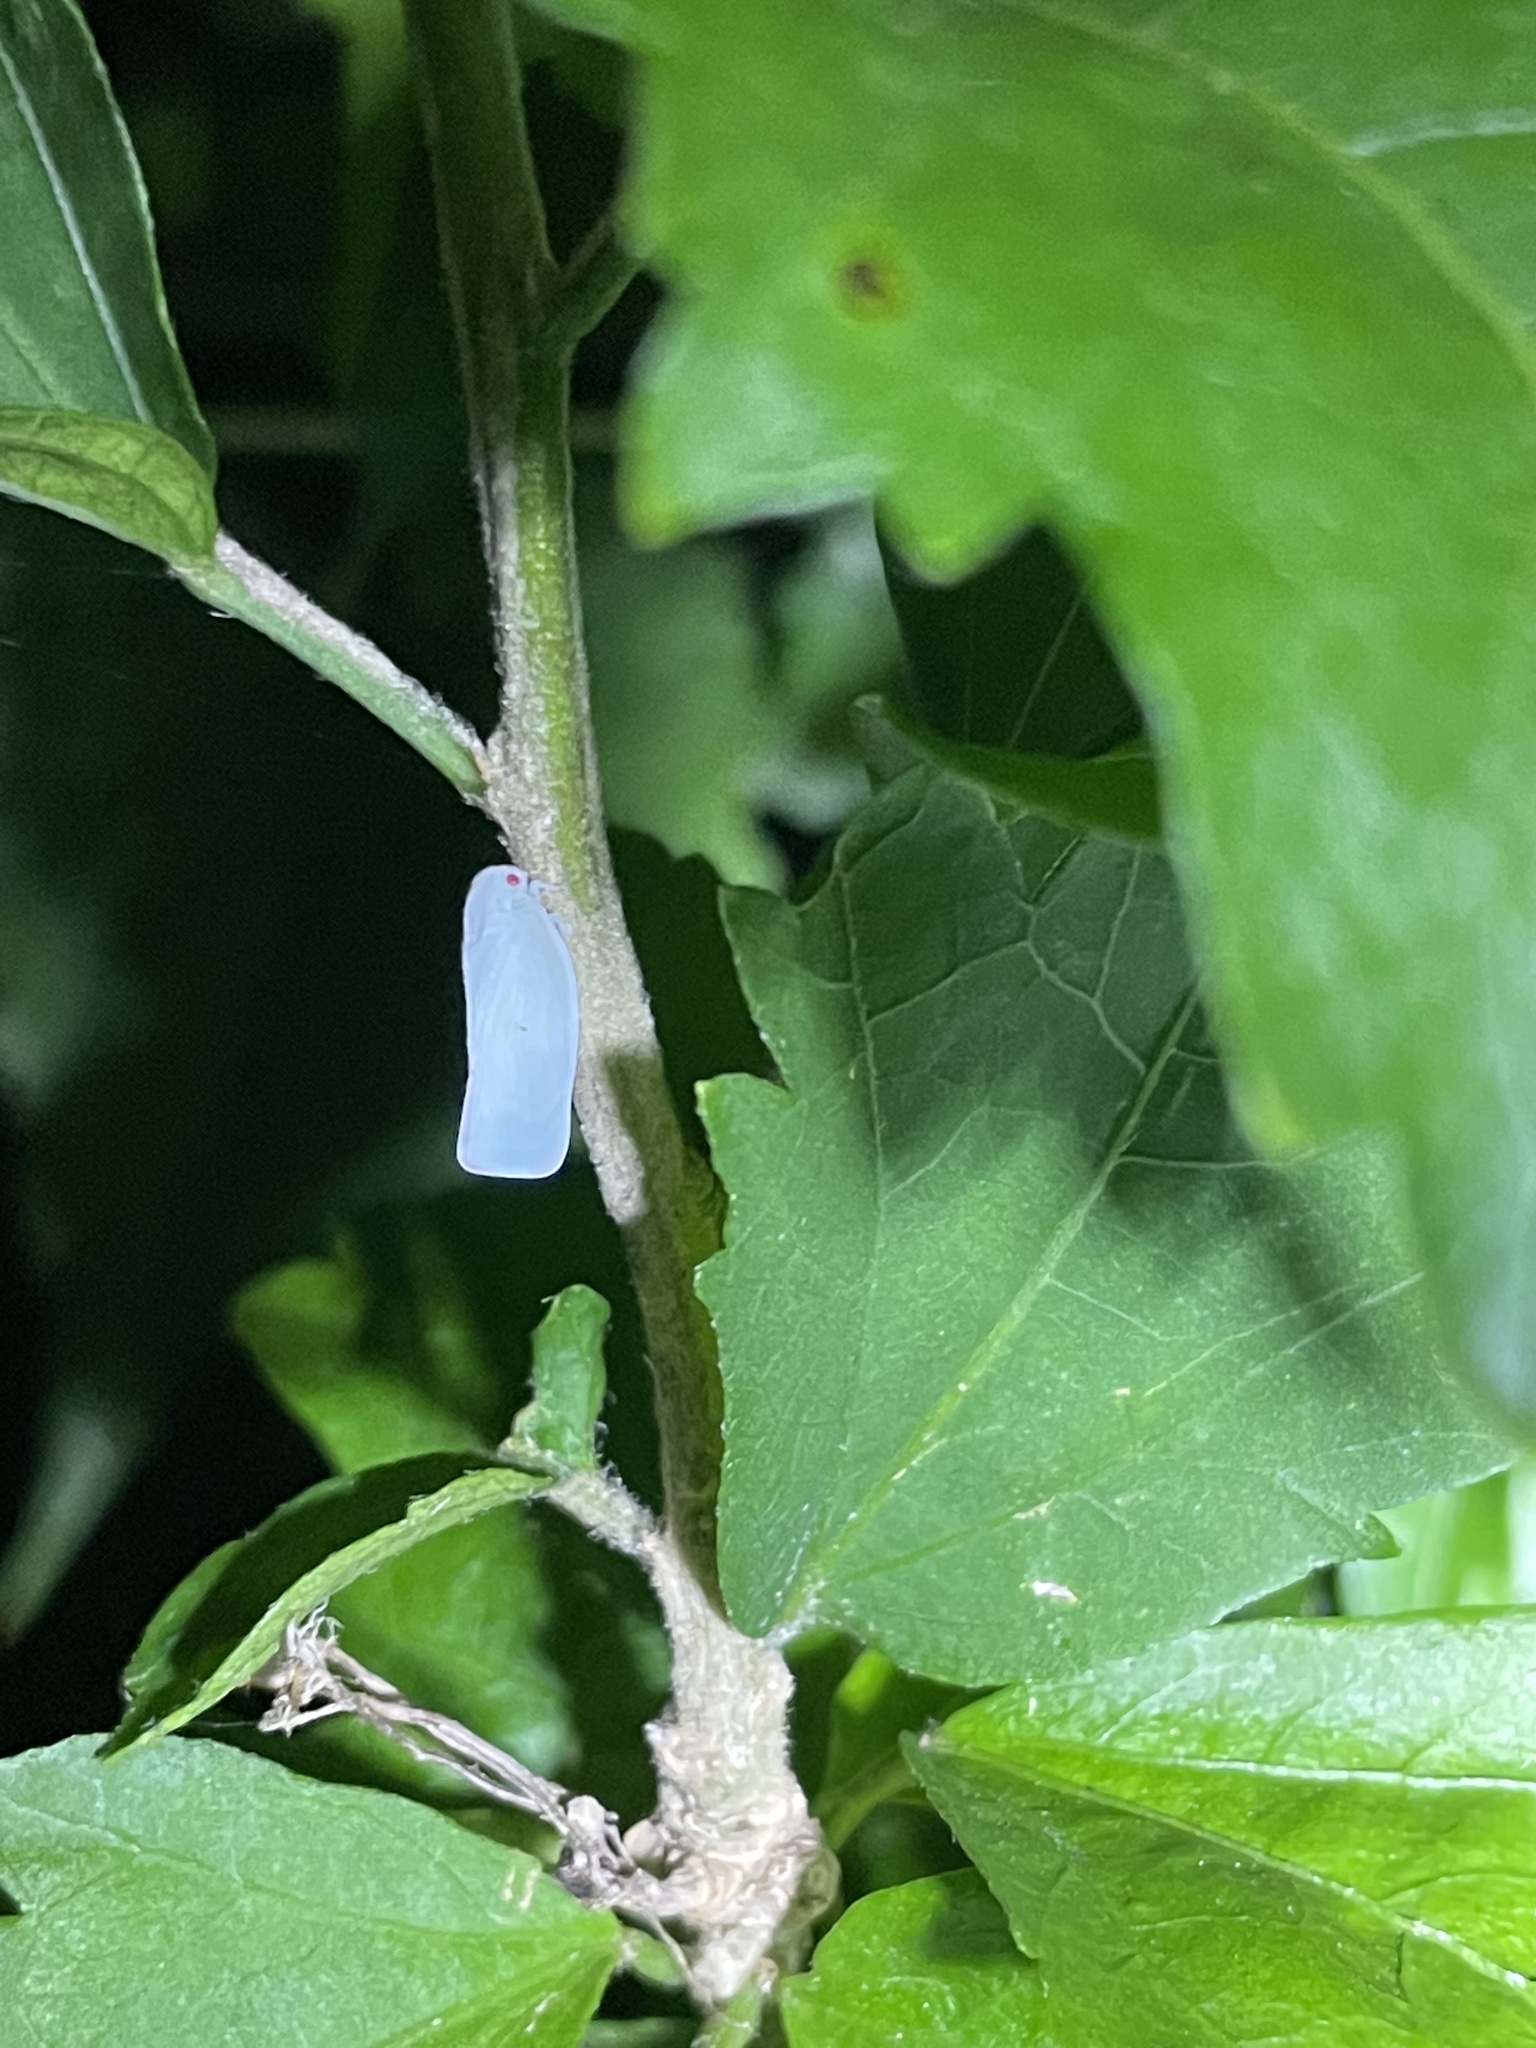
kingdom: Animalia
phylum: Arthropoda
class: Insecta
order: Hemiptera
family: Flatidae
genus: Flatormenis
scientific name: Flatormenis proxima
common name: Northern flatid planthopper
